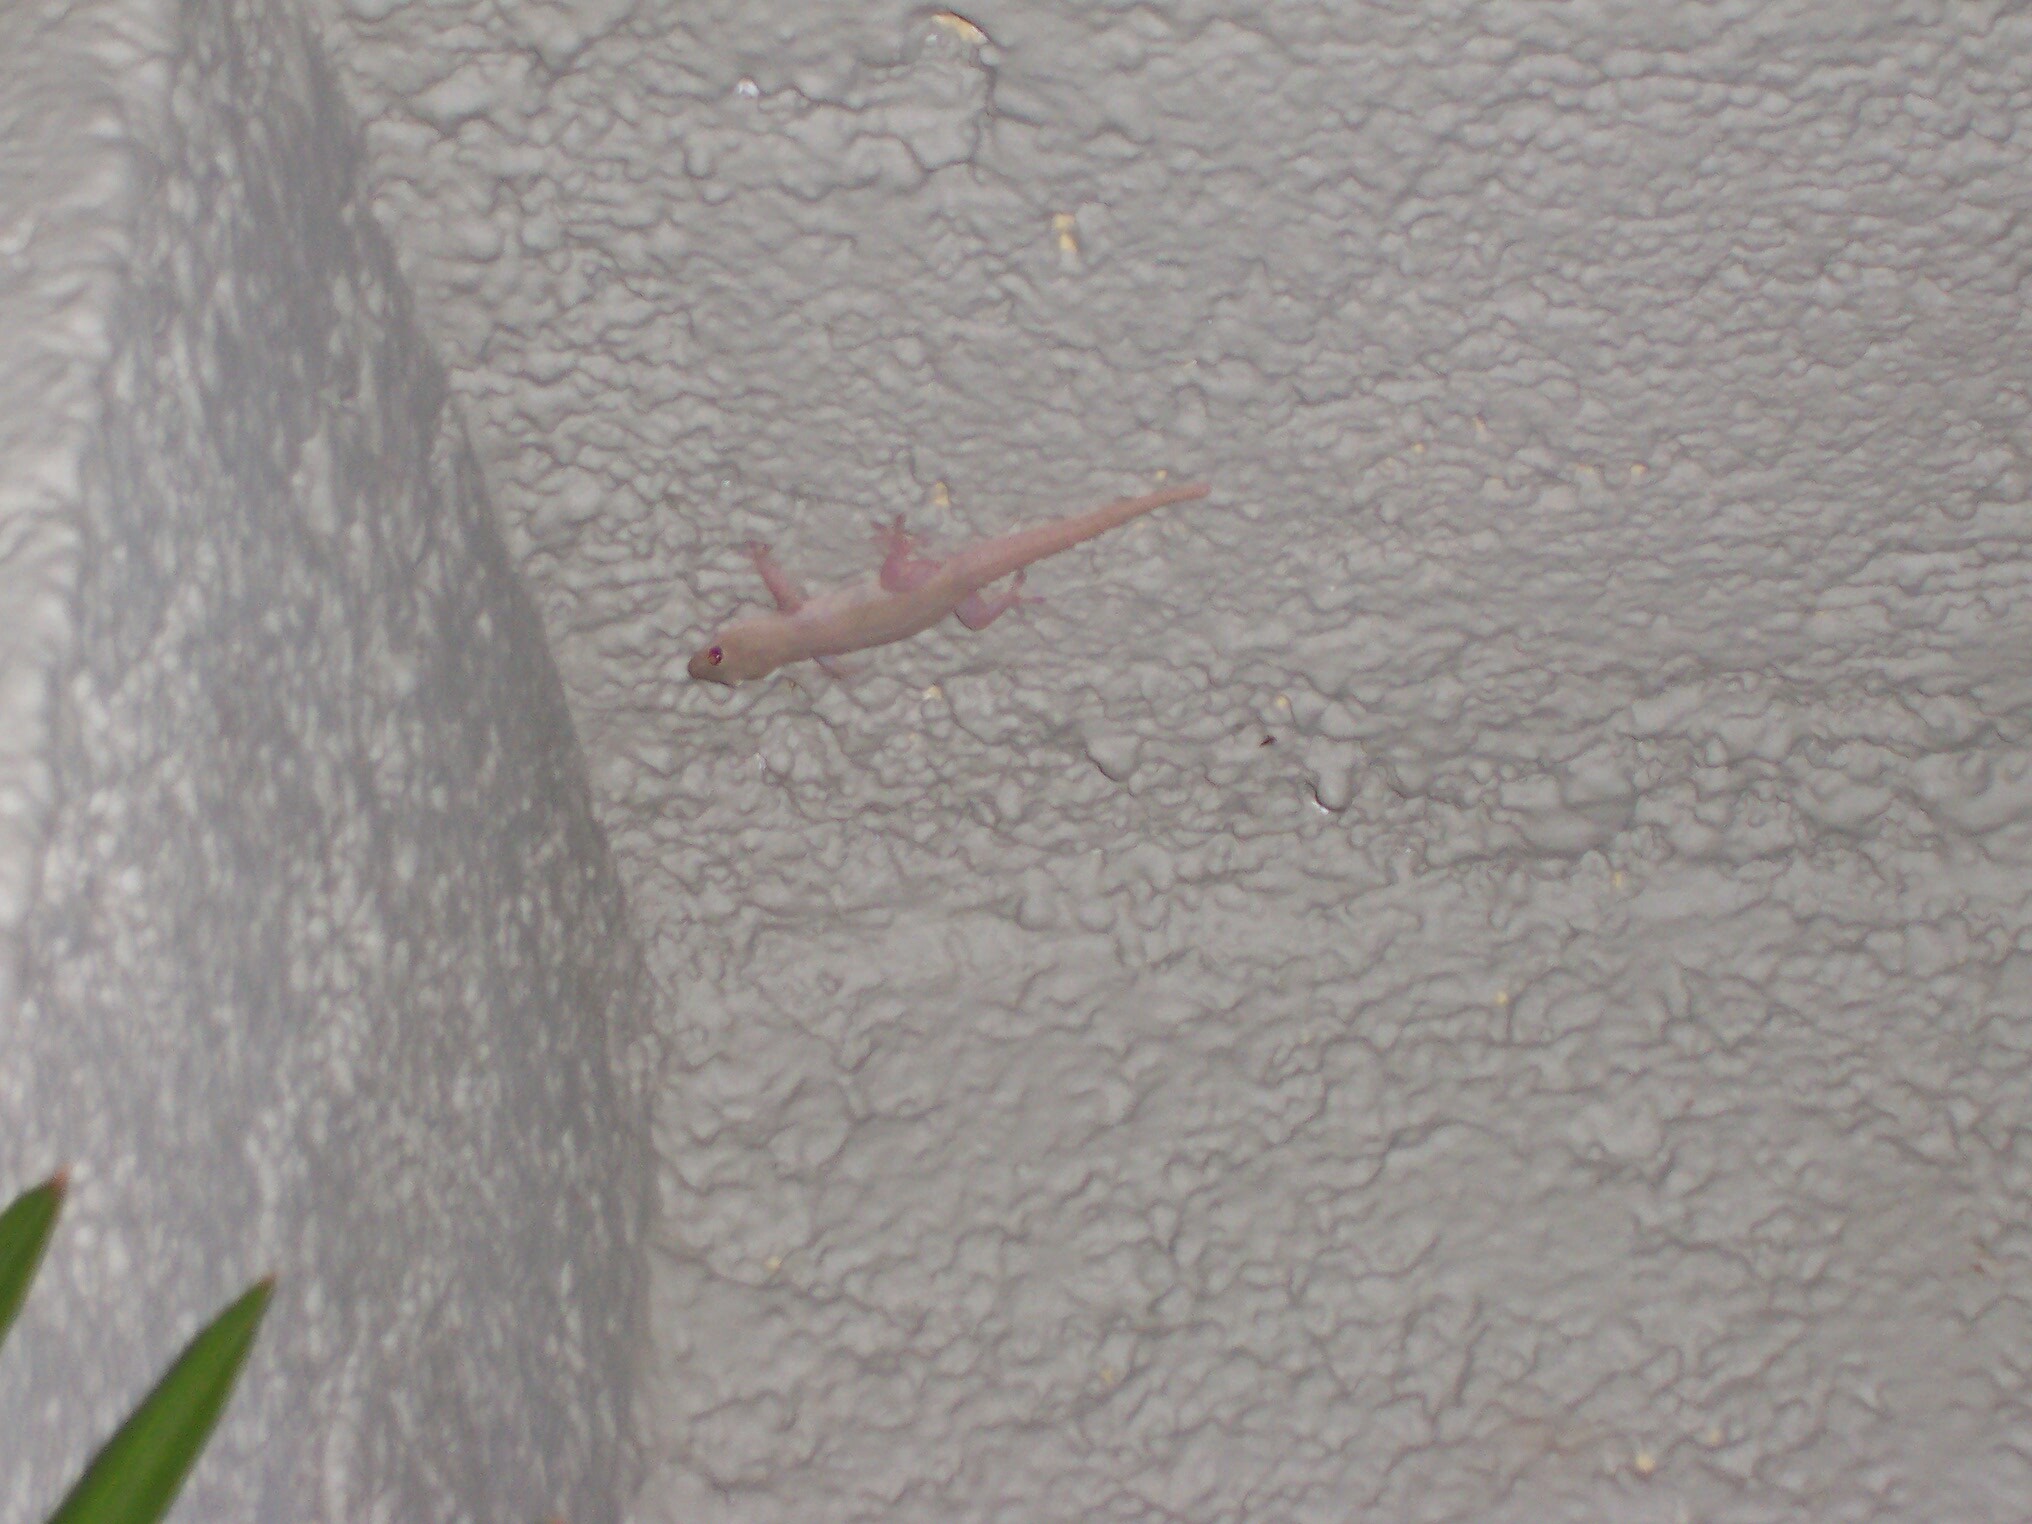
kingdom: Animalia
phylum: Chordata
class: Squamata
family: Gekkonidae
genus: Hemidactylus
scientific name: Hemidactylus frenatus
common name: Common house gecko
